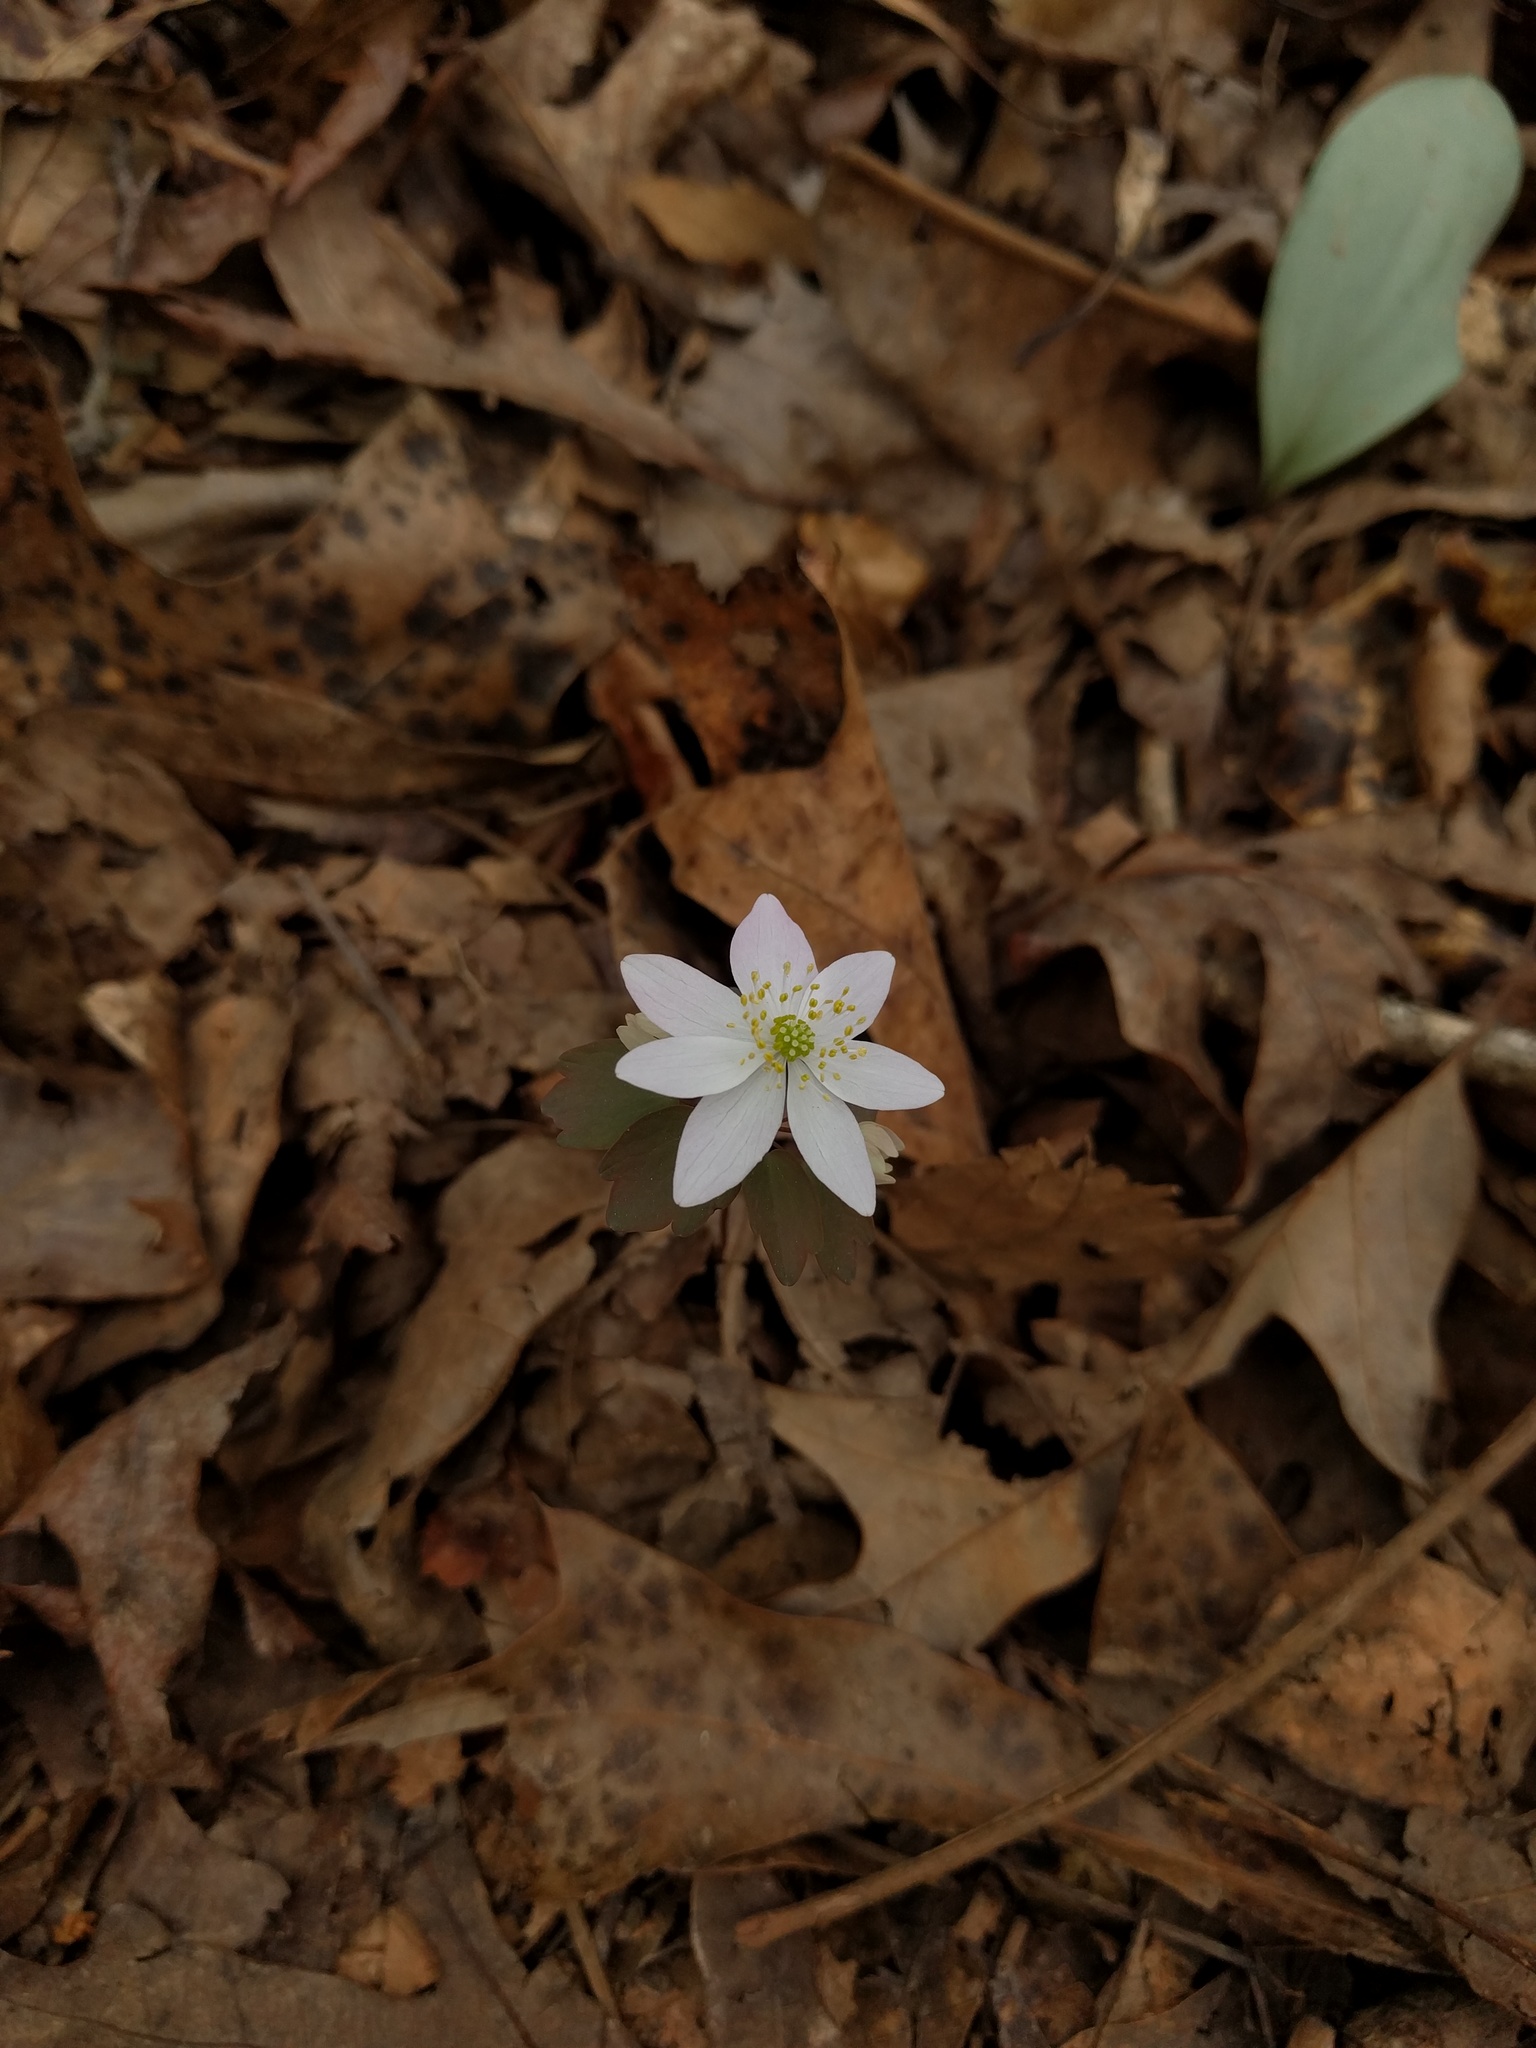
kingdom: Plantae
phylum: Tracheophyta
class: Magnoliopsida
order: Ranunculales
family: Ranunculaceae
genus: Thalictrum
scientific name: Thalictrum thalictroides
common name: Rue-anemone
